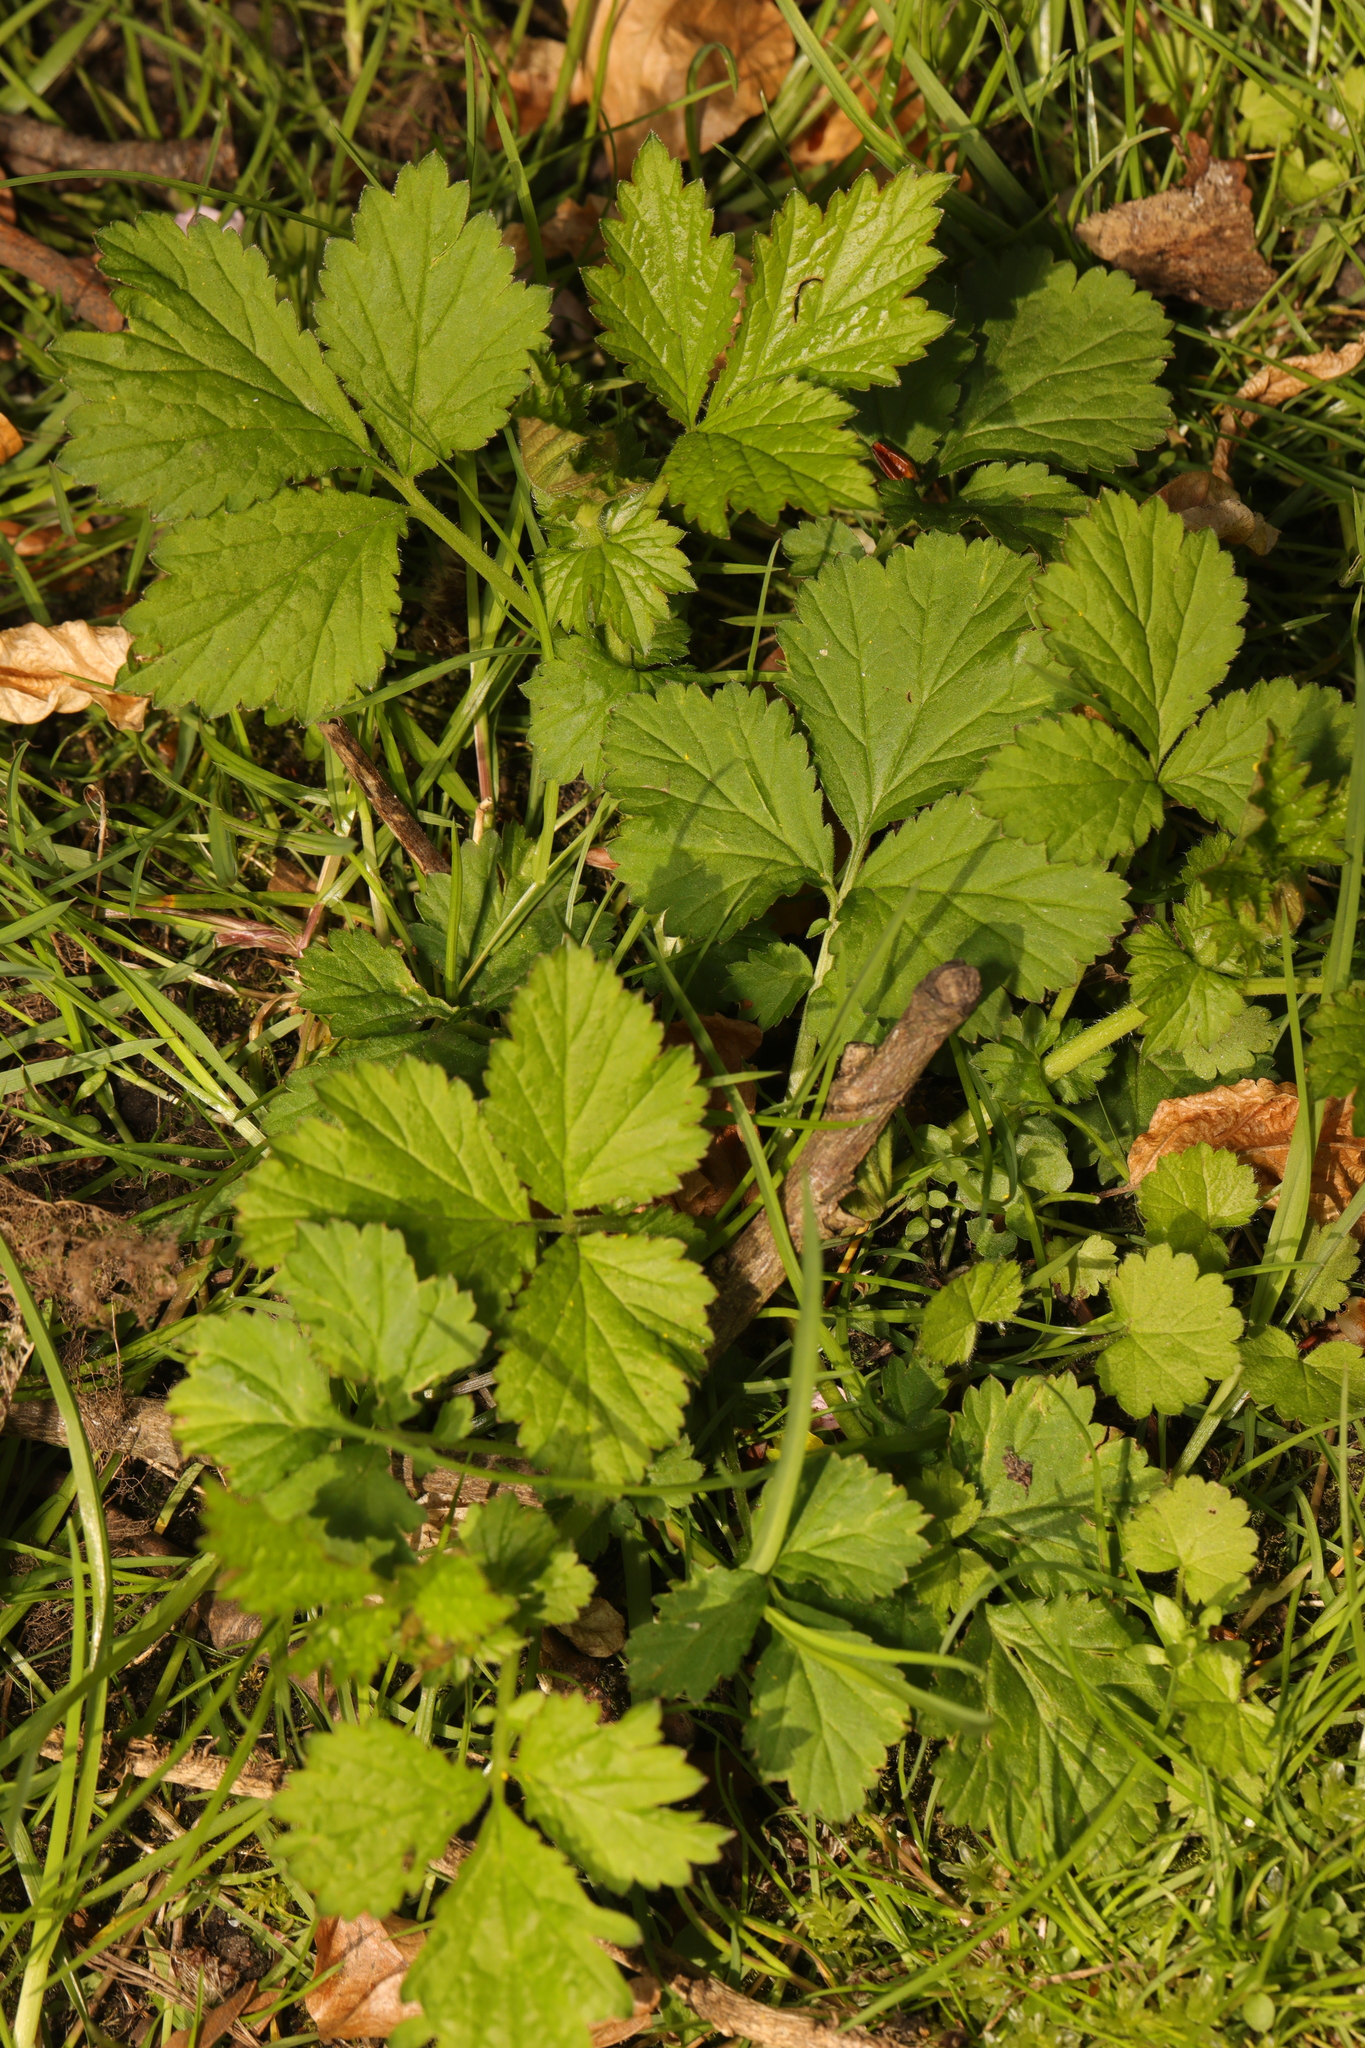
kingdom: Plantae
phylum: Tracheophyta
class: Magnoliopsida
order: Rosales
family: Rosaceae
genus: Geum
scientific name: Geum urbanum
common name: Wood avens
